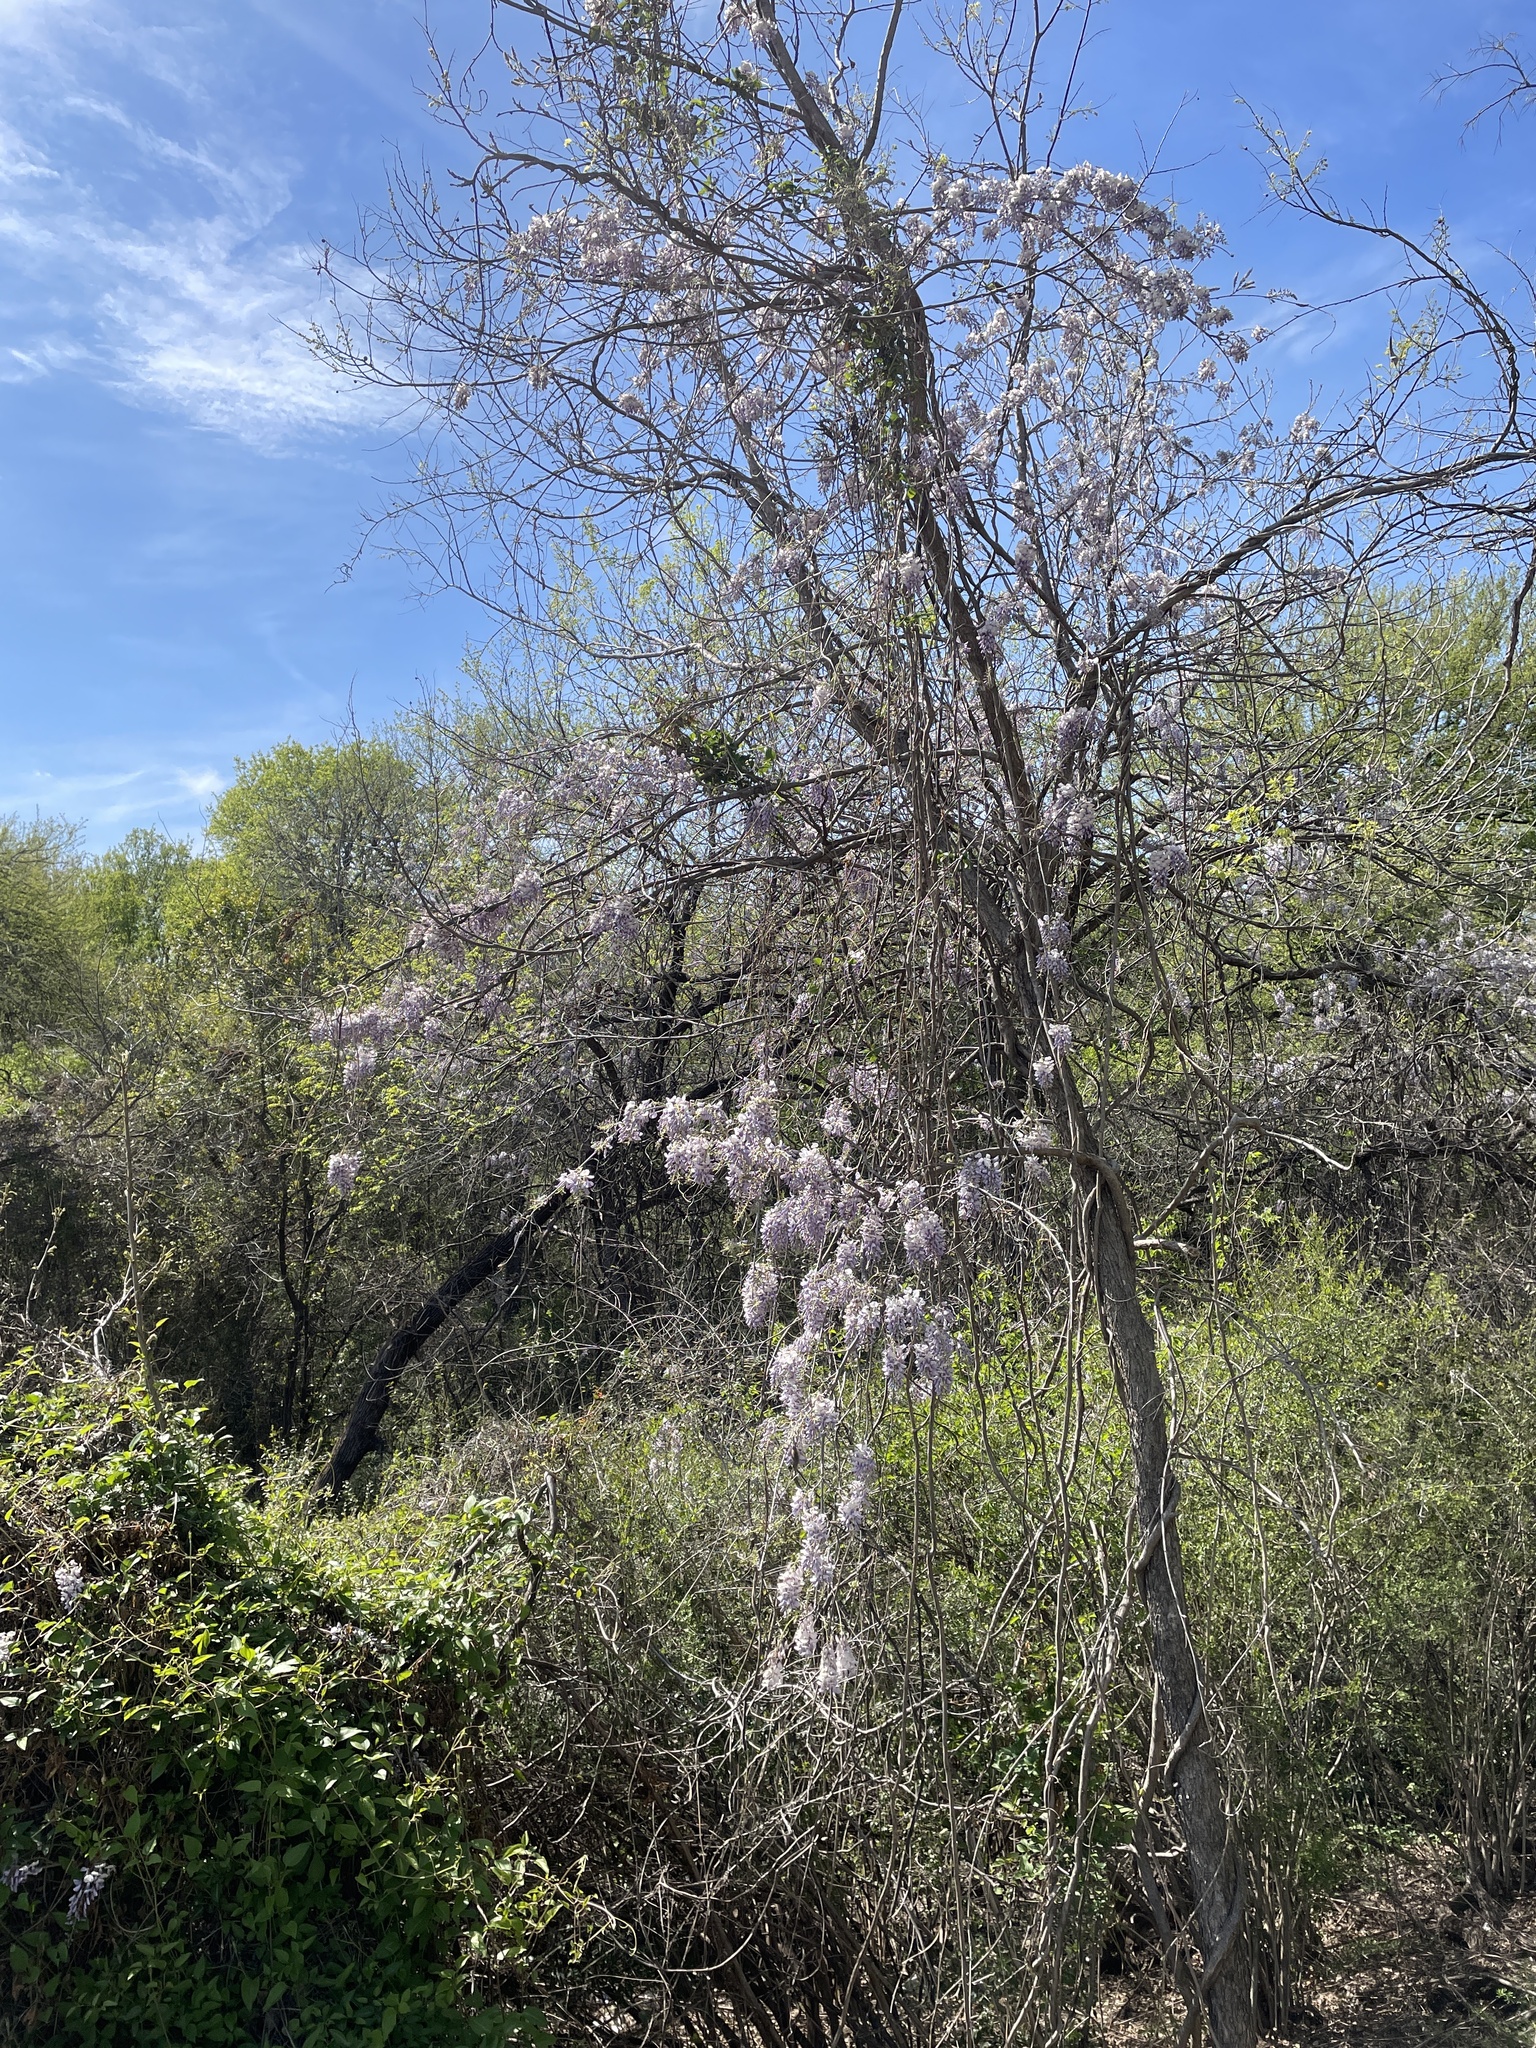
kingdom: Plantae
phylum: Tracheophyta
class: Magnoliopsida
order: Fabales
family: Fabaceae
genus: Wisteria
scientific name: Wisteria sinensis
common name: Chinese wisteria
